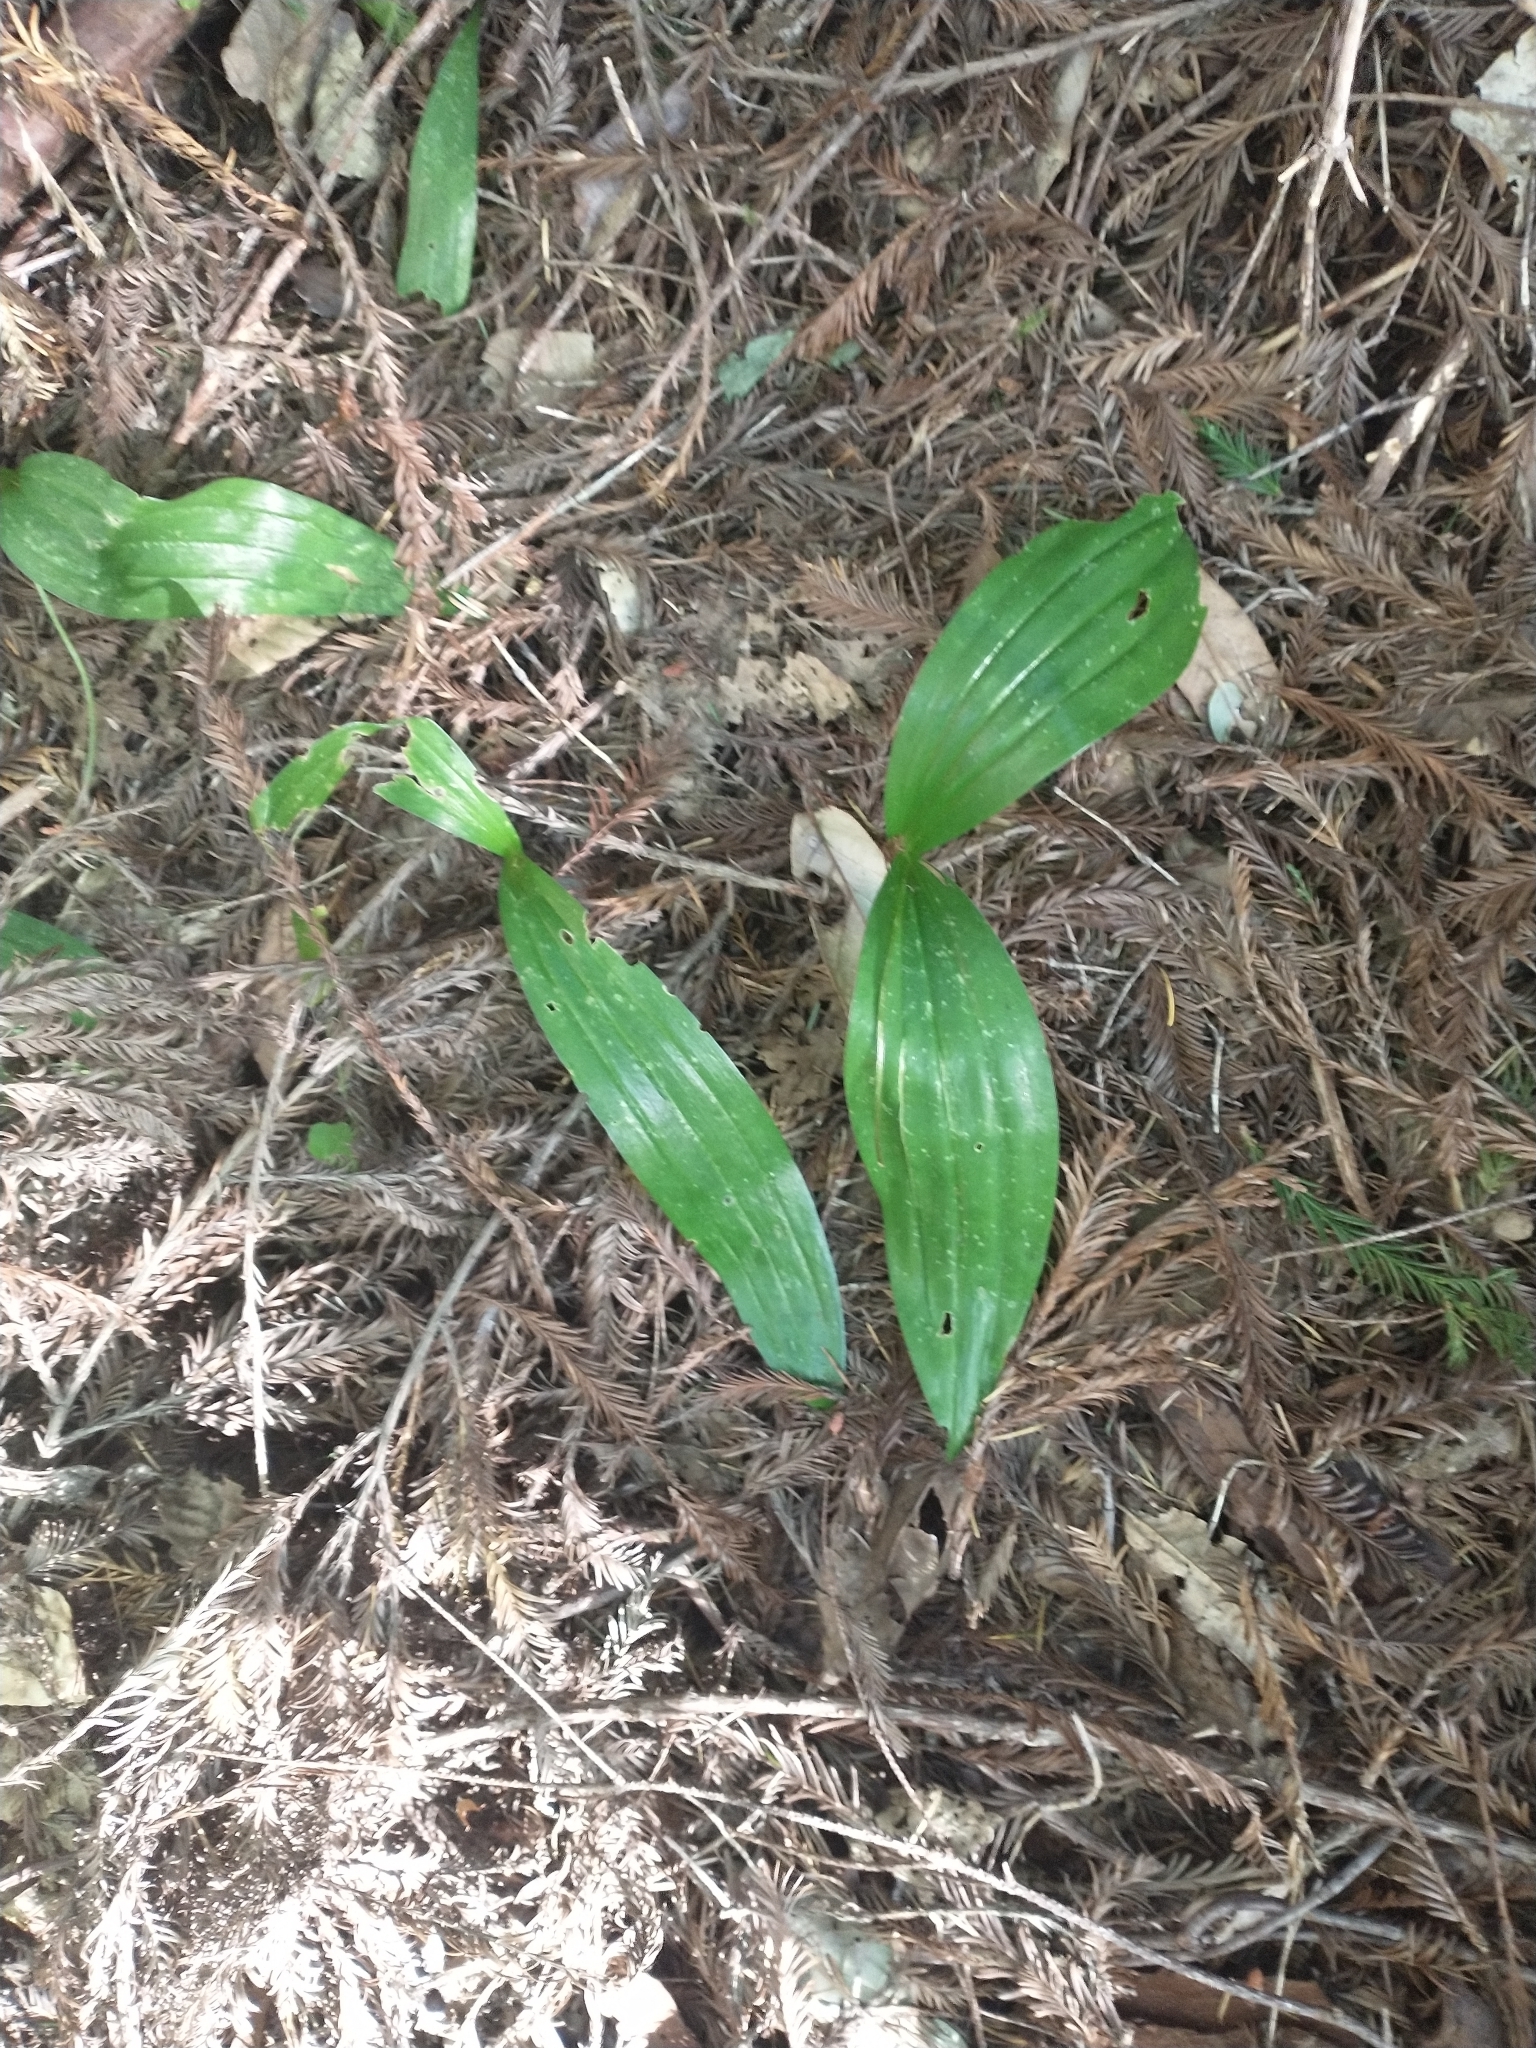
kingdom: Plantae
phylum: Tracheophyta
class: Liliopsida
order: Liliales
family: Liliaceae
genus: Scoliopus
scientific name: Scoliopus bigelovii
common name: Foetid adder's-tongue
